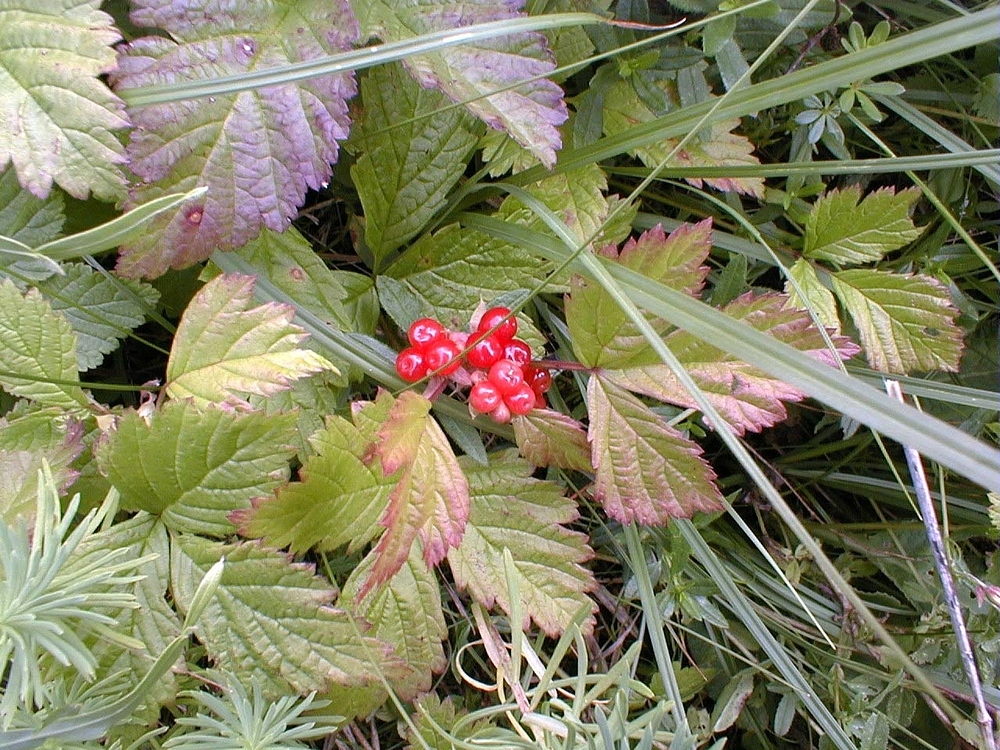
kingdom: Plantae
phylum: Tracheophyta
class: Magnoliopsida
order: Rosales
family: Rosaceae
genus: Rubus
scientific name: Rubus saxatilis
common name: Stone bramble
